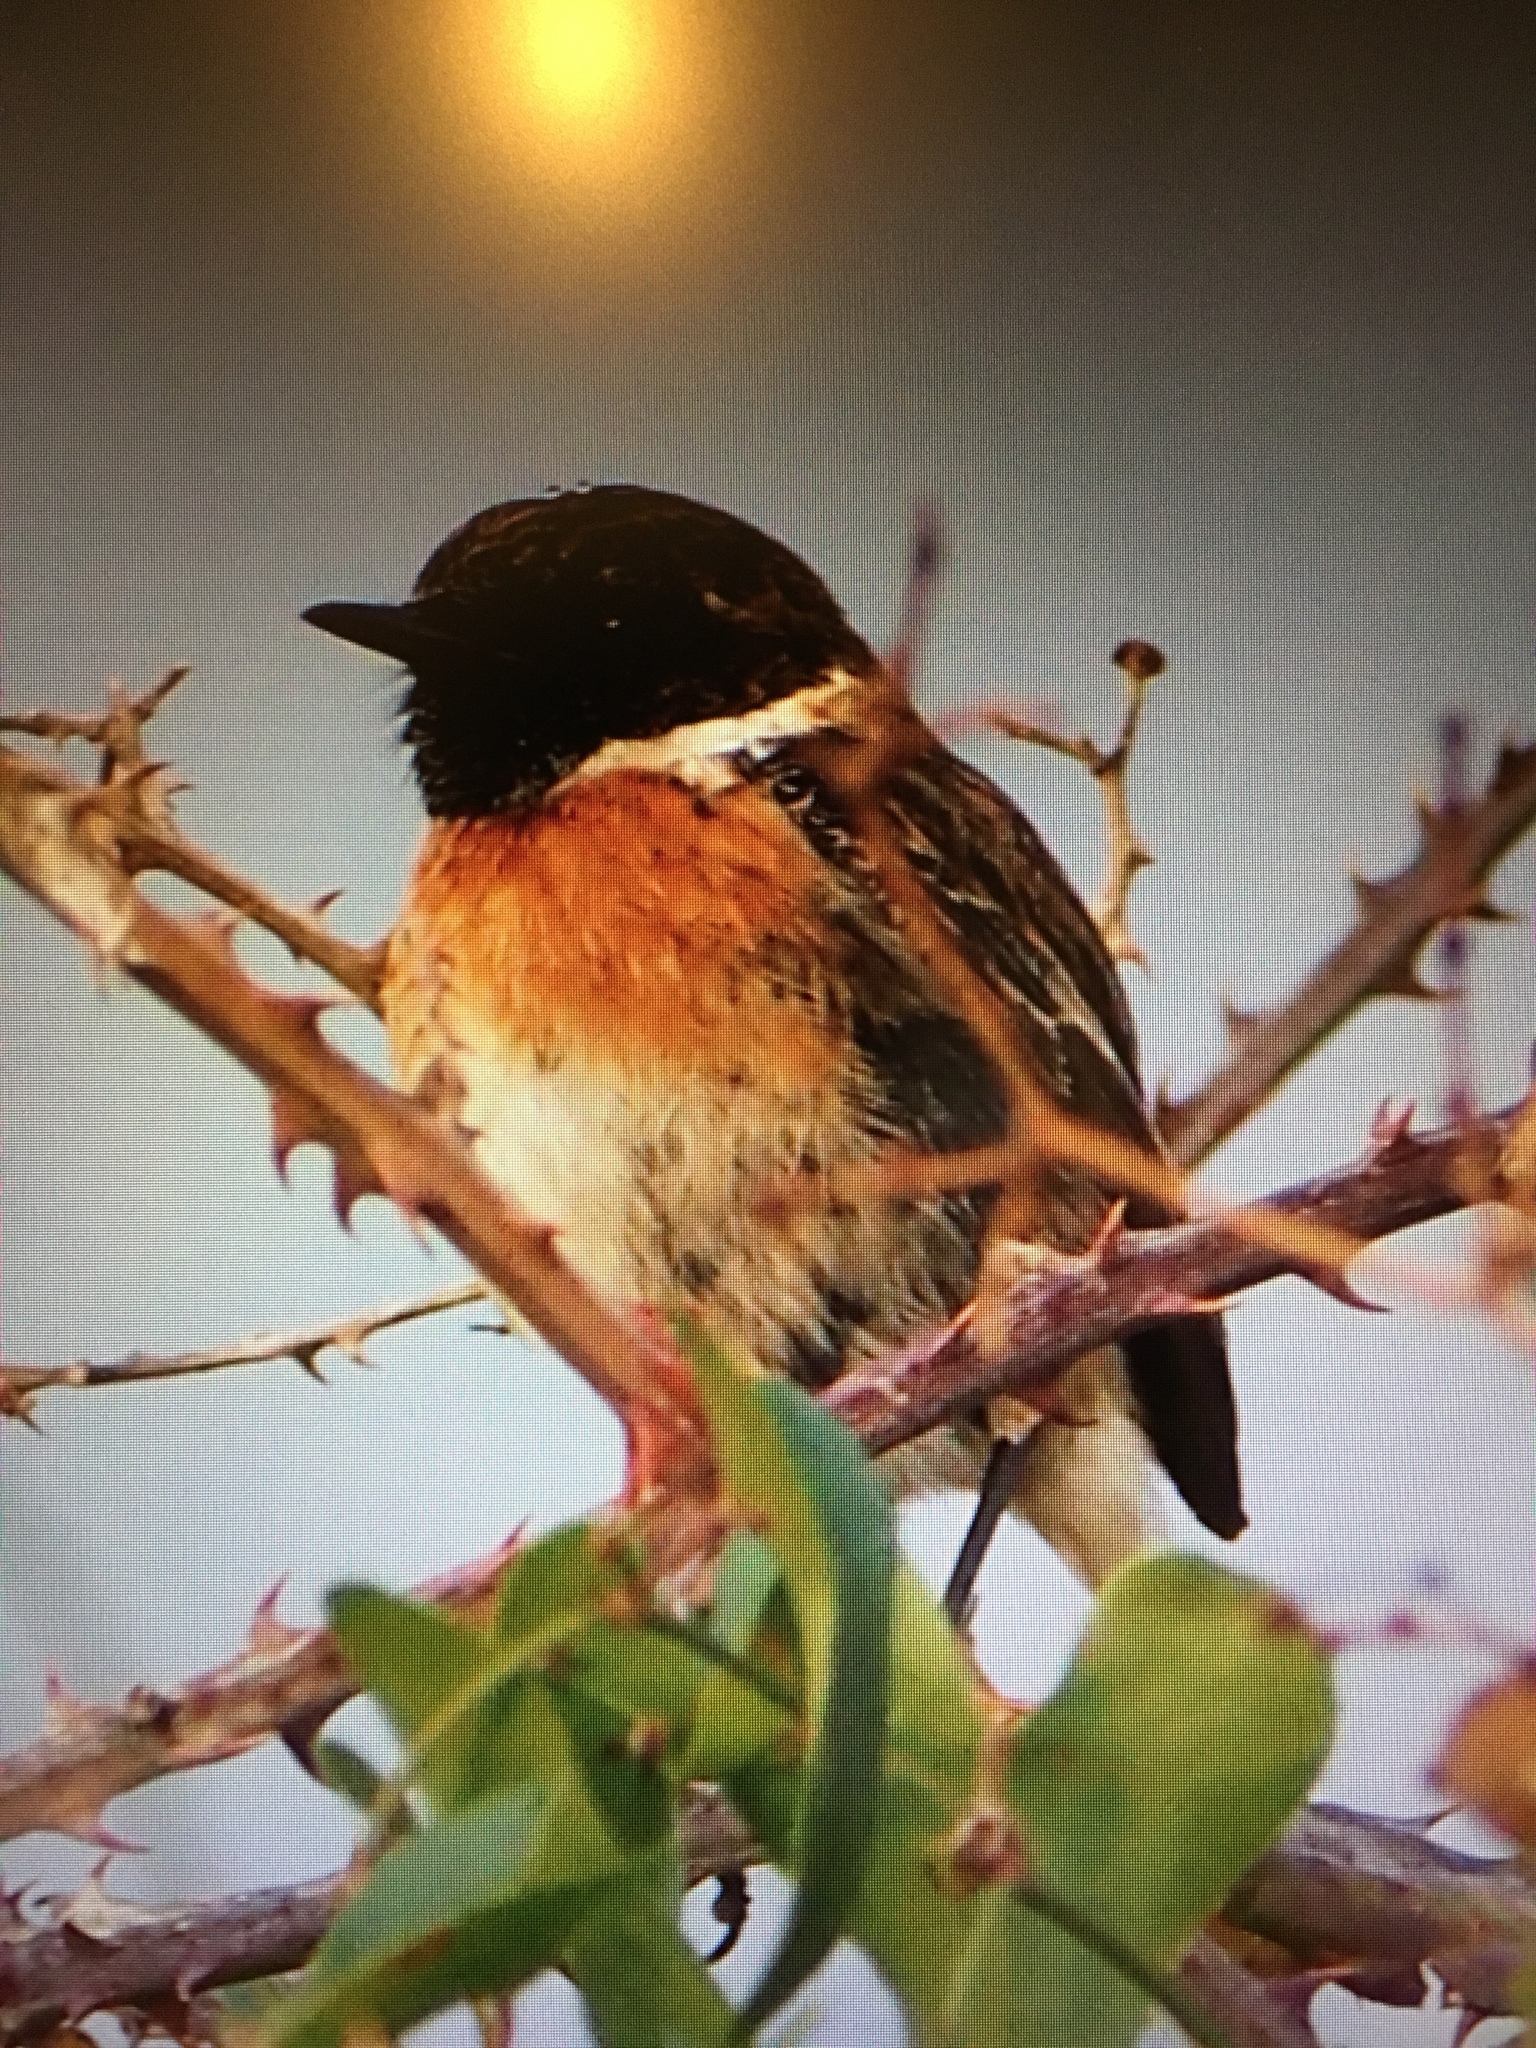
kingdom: Animalia
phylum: Chordata
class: Aves
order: Passeriformes
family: Muscicapidae
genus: Saxicola
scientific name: Saxicola rubicola
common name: European stonechat
